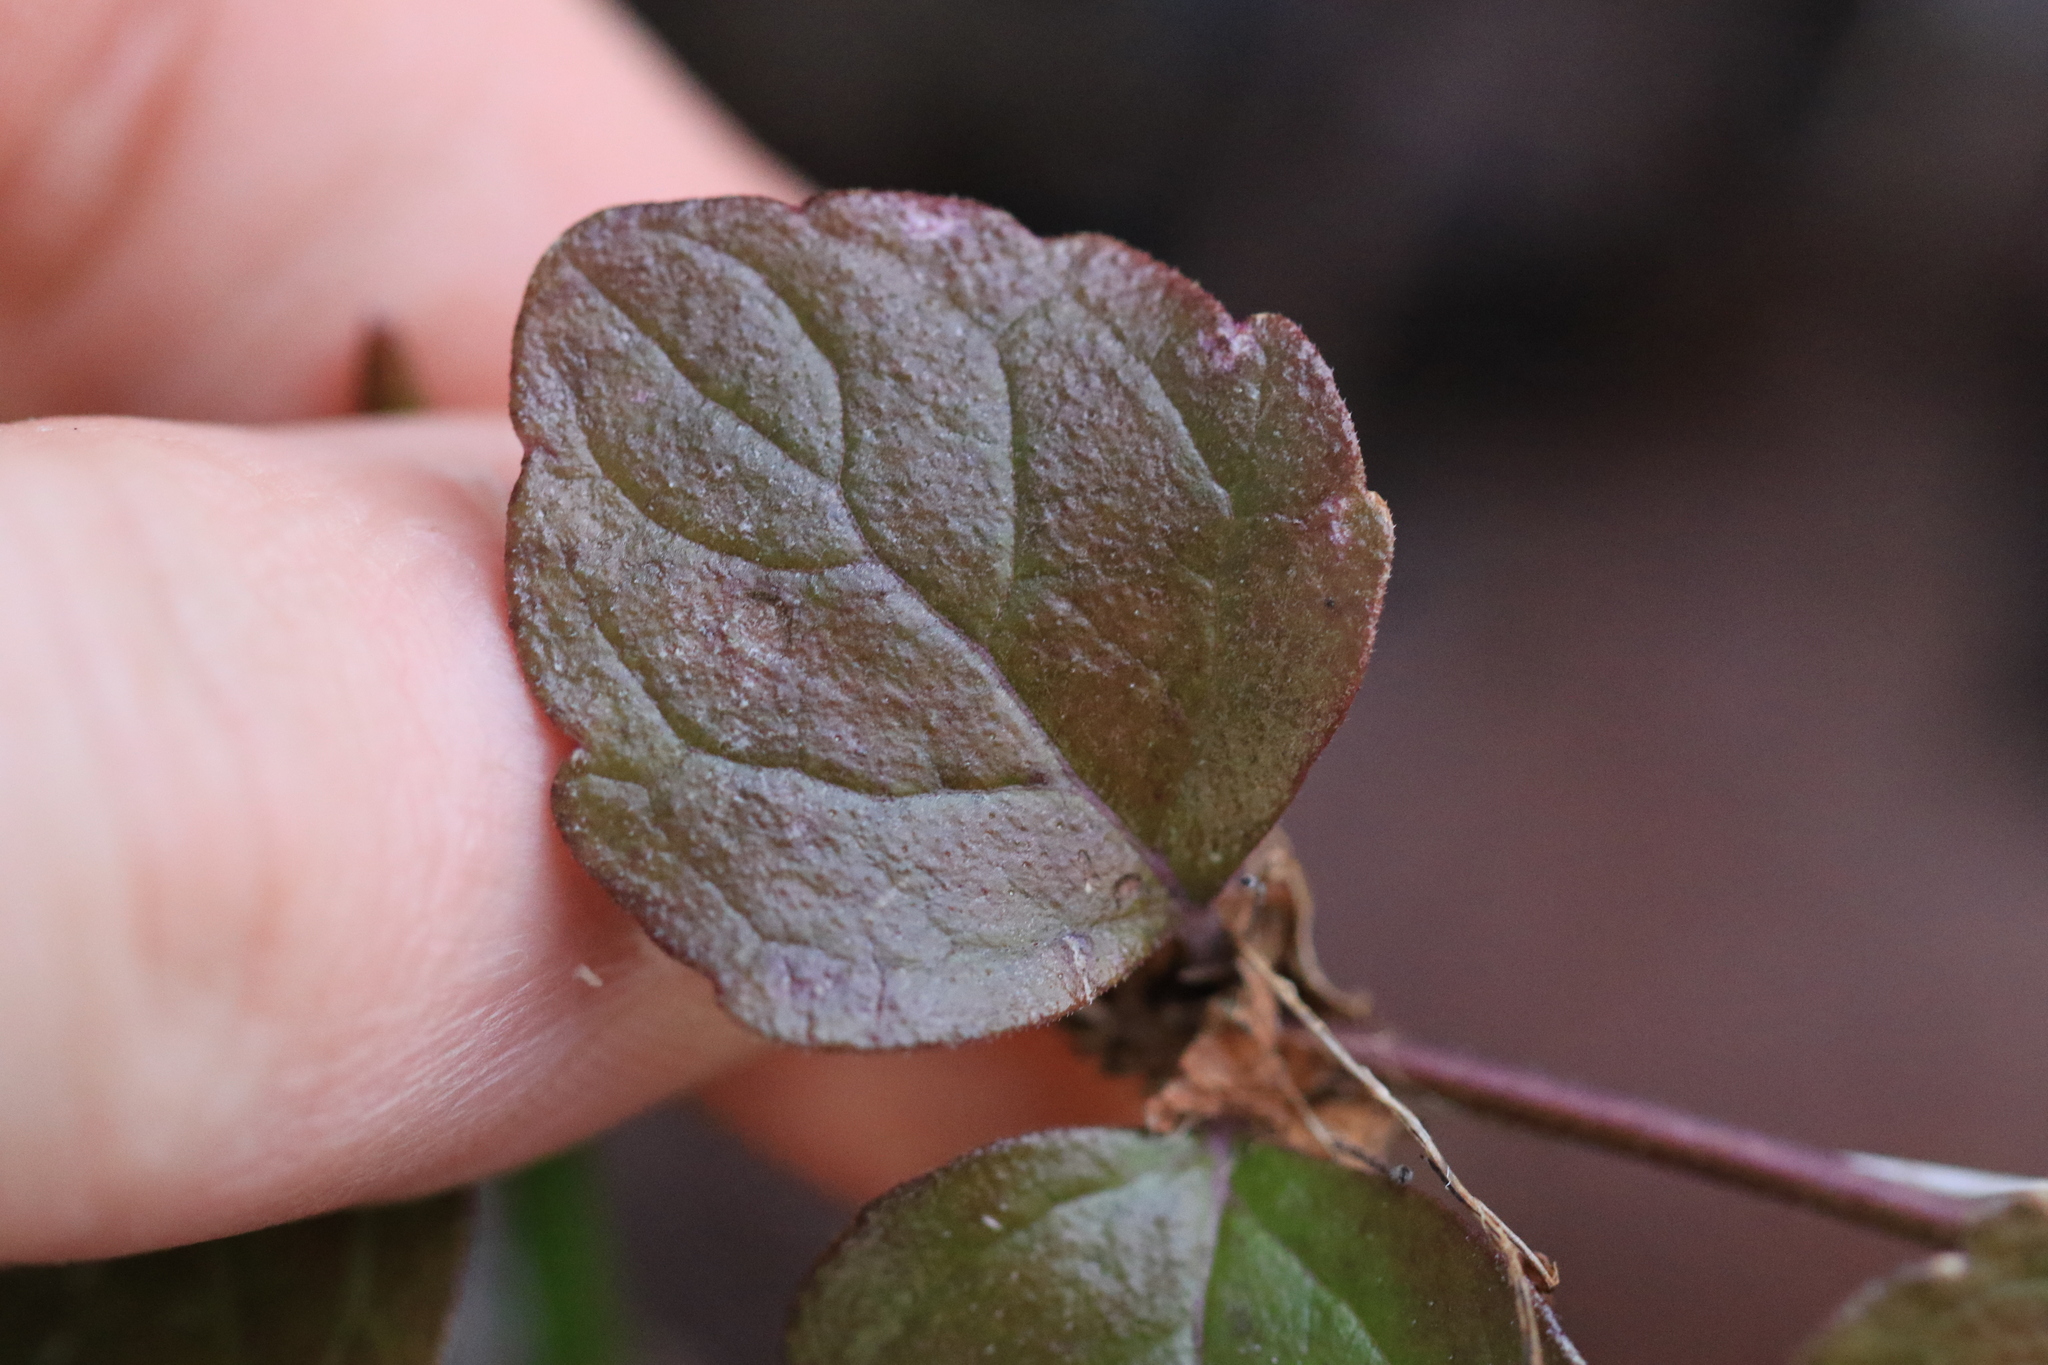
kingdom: Plantae
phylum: Tracheophyta
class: Magnoliopsida
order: Lamiales
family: Lamiaceae
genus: Micromeria
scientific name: Micromeria douglasii
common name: Yerba buena
